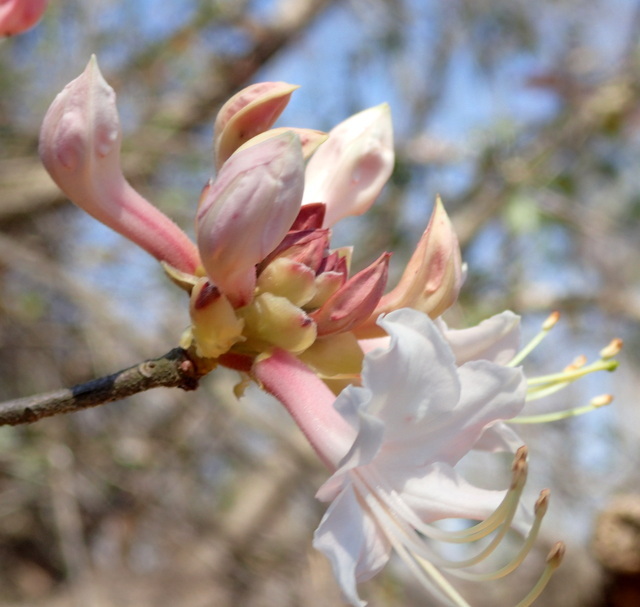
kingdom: Plantae
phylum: Tracheophyta
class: Magnoliopsida
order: Ericales
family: Ericaceae
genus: Rhododendron
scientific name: Rhododendron canescens
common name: Mountain azalea
